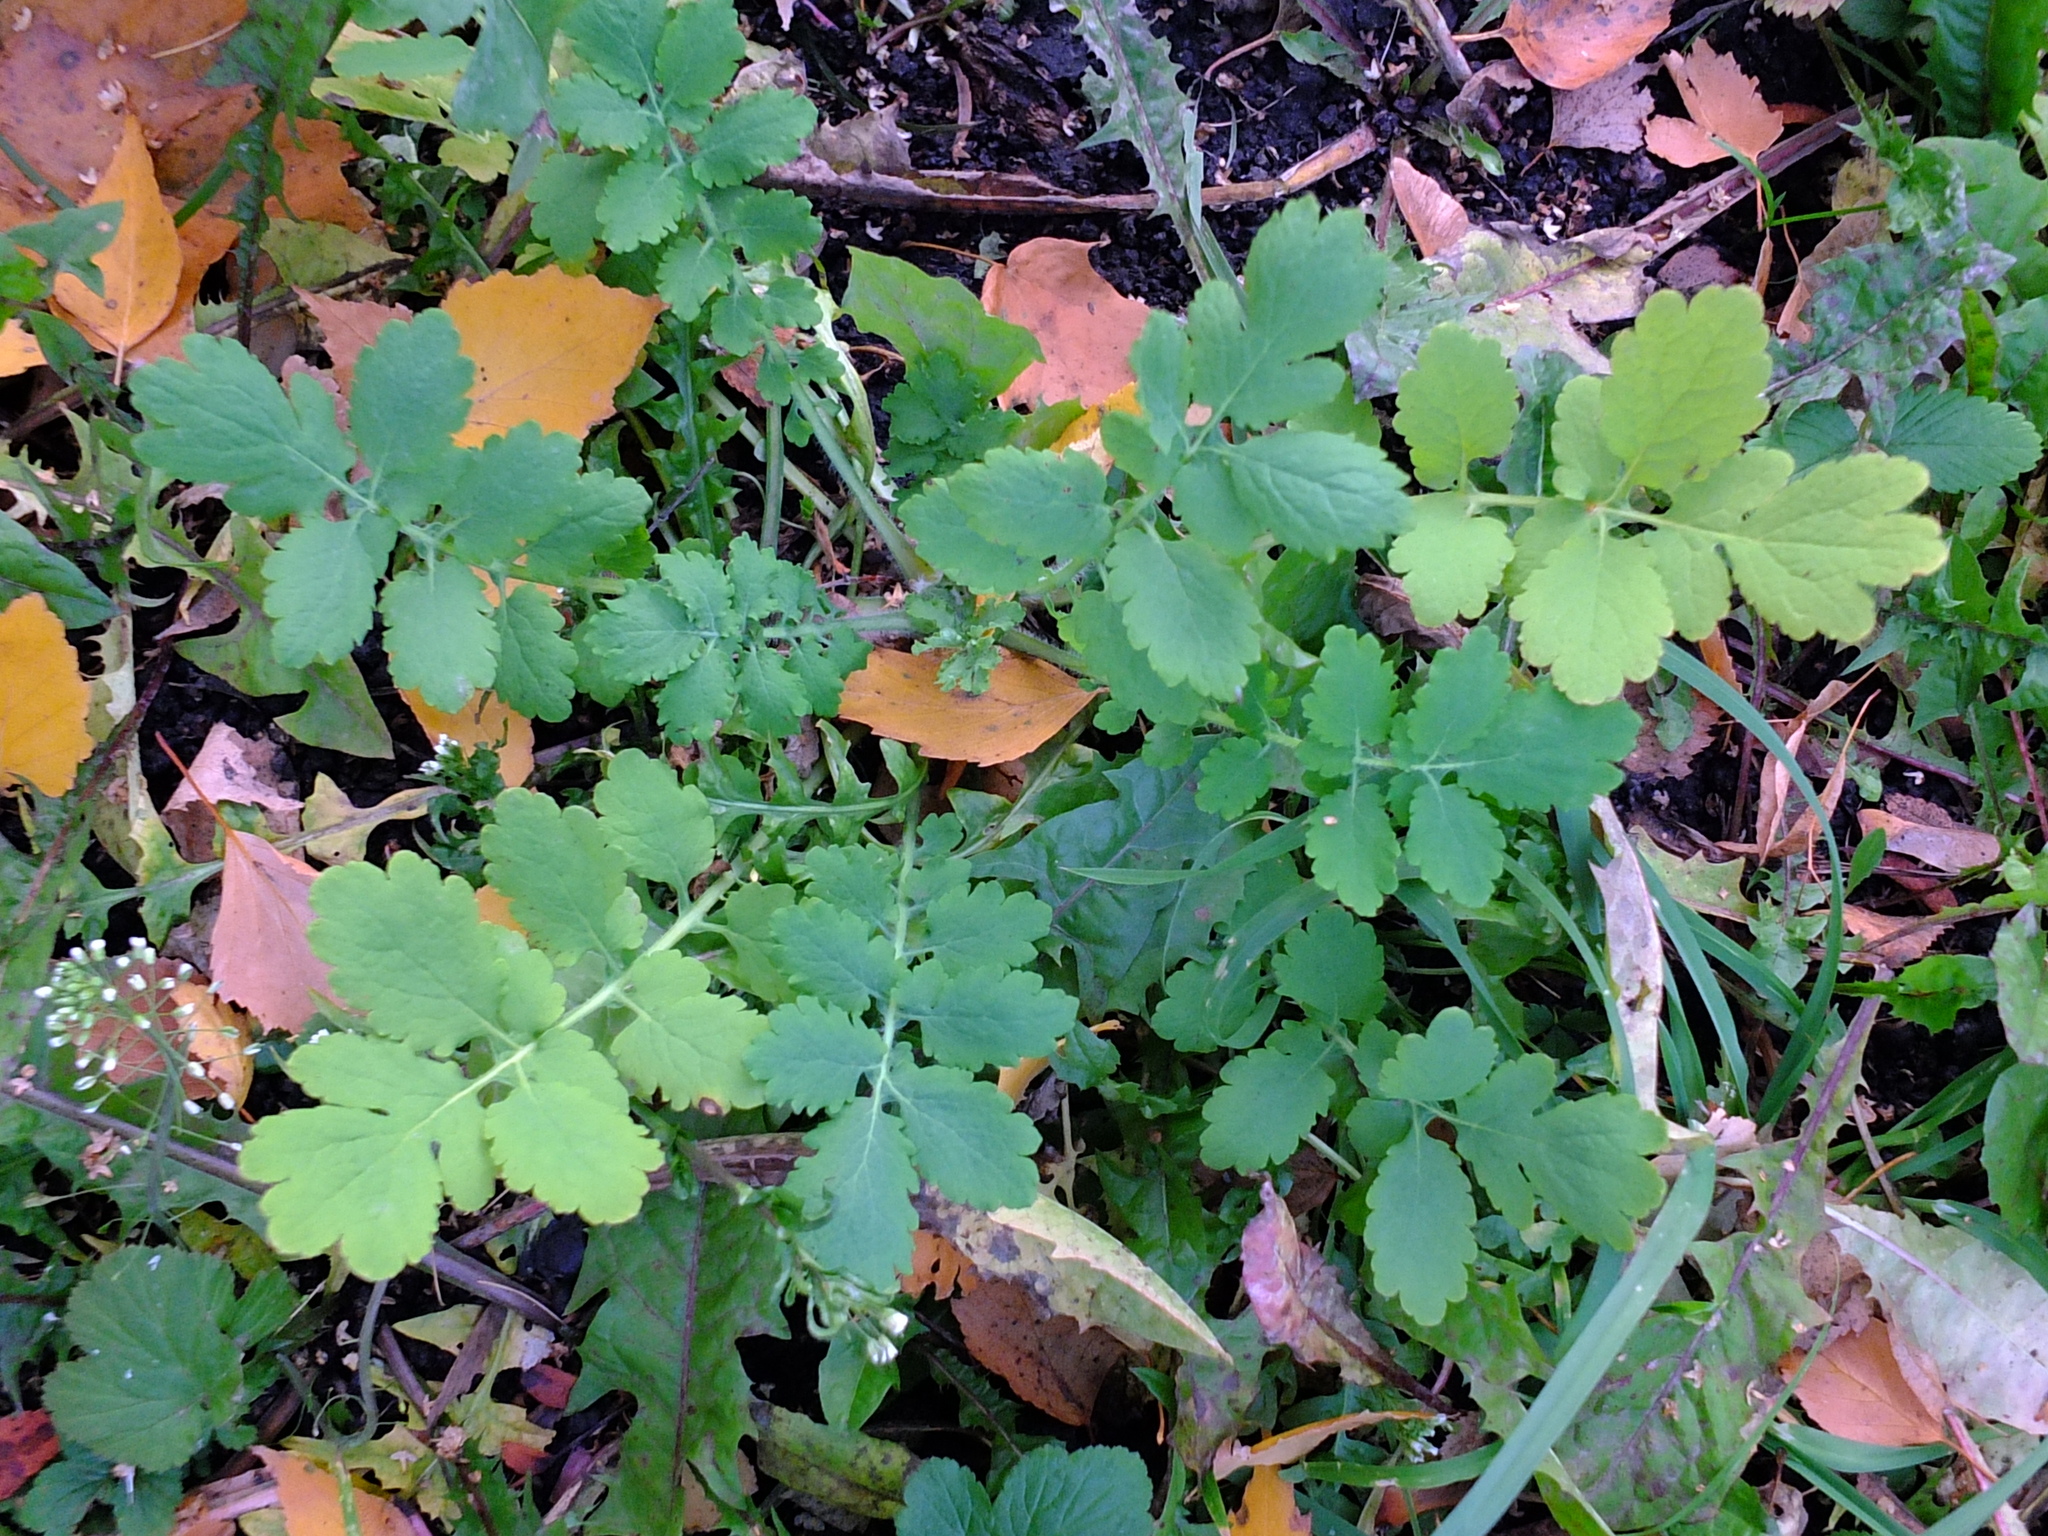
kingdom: Plantae
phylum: Tracheophyta
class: Magnoliopsida
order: Ranunculales
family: Papaveraceae
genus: Chelidonium
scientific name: Chelidonium majus
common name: Greater celandine
